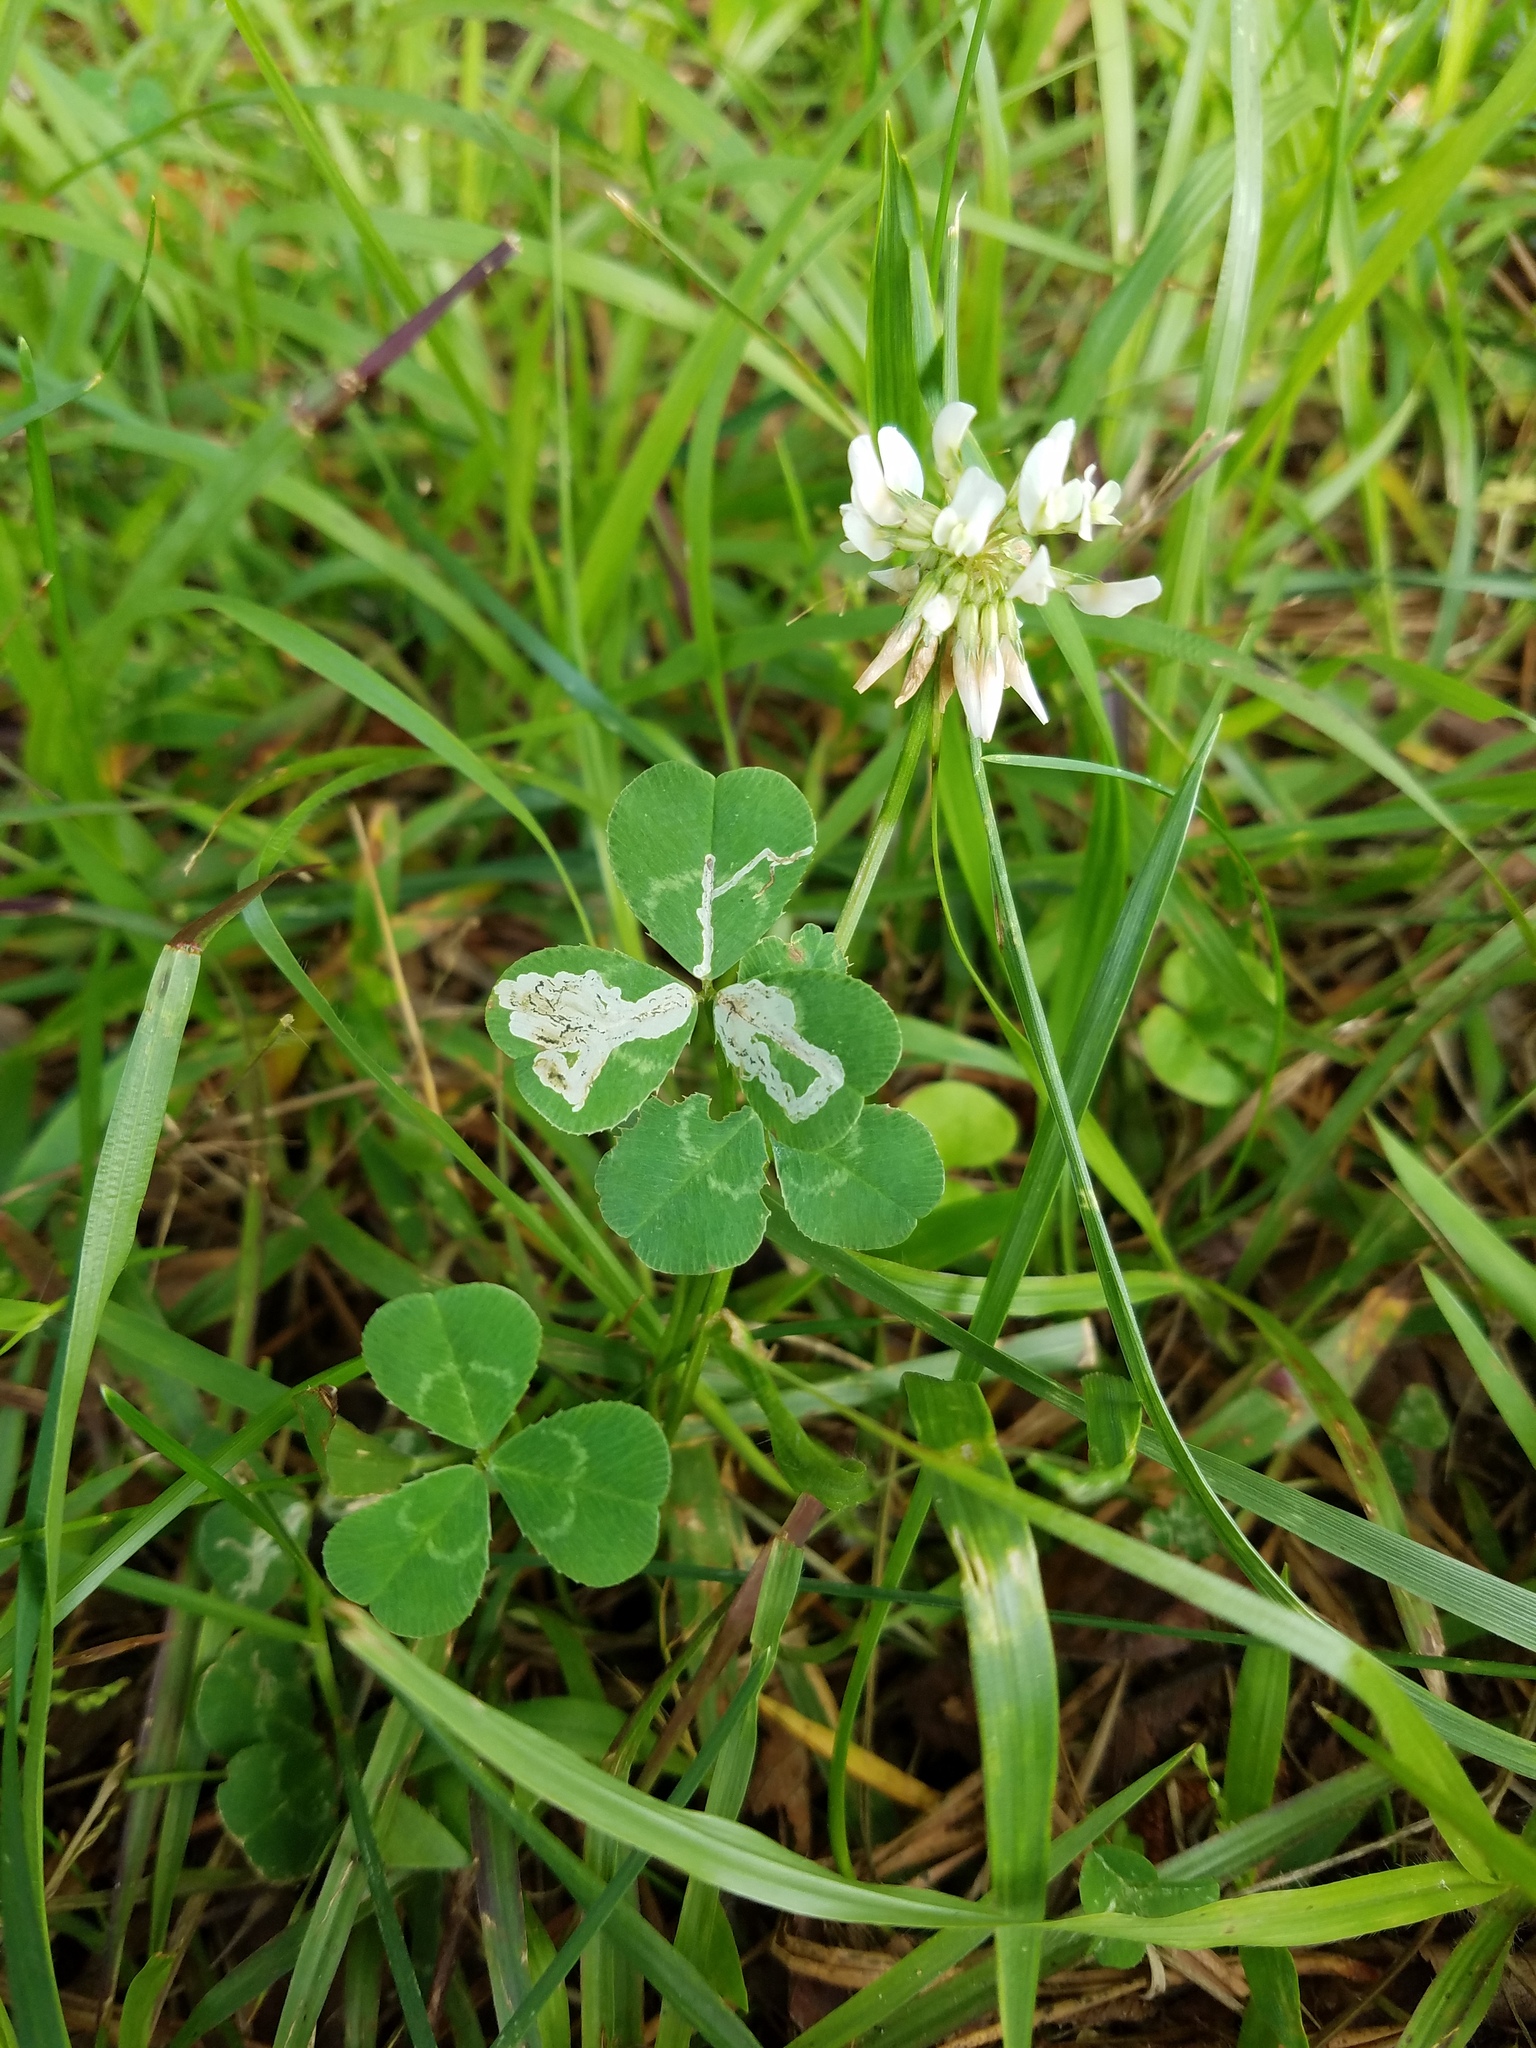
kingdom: Plantae
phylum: Tracheophyta
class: Magnoliopsida
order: Fabales
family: Fabaceae
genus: Trifolium
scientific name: Trifolium repens
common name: White clover
